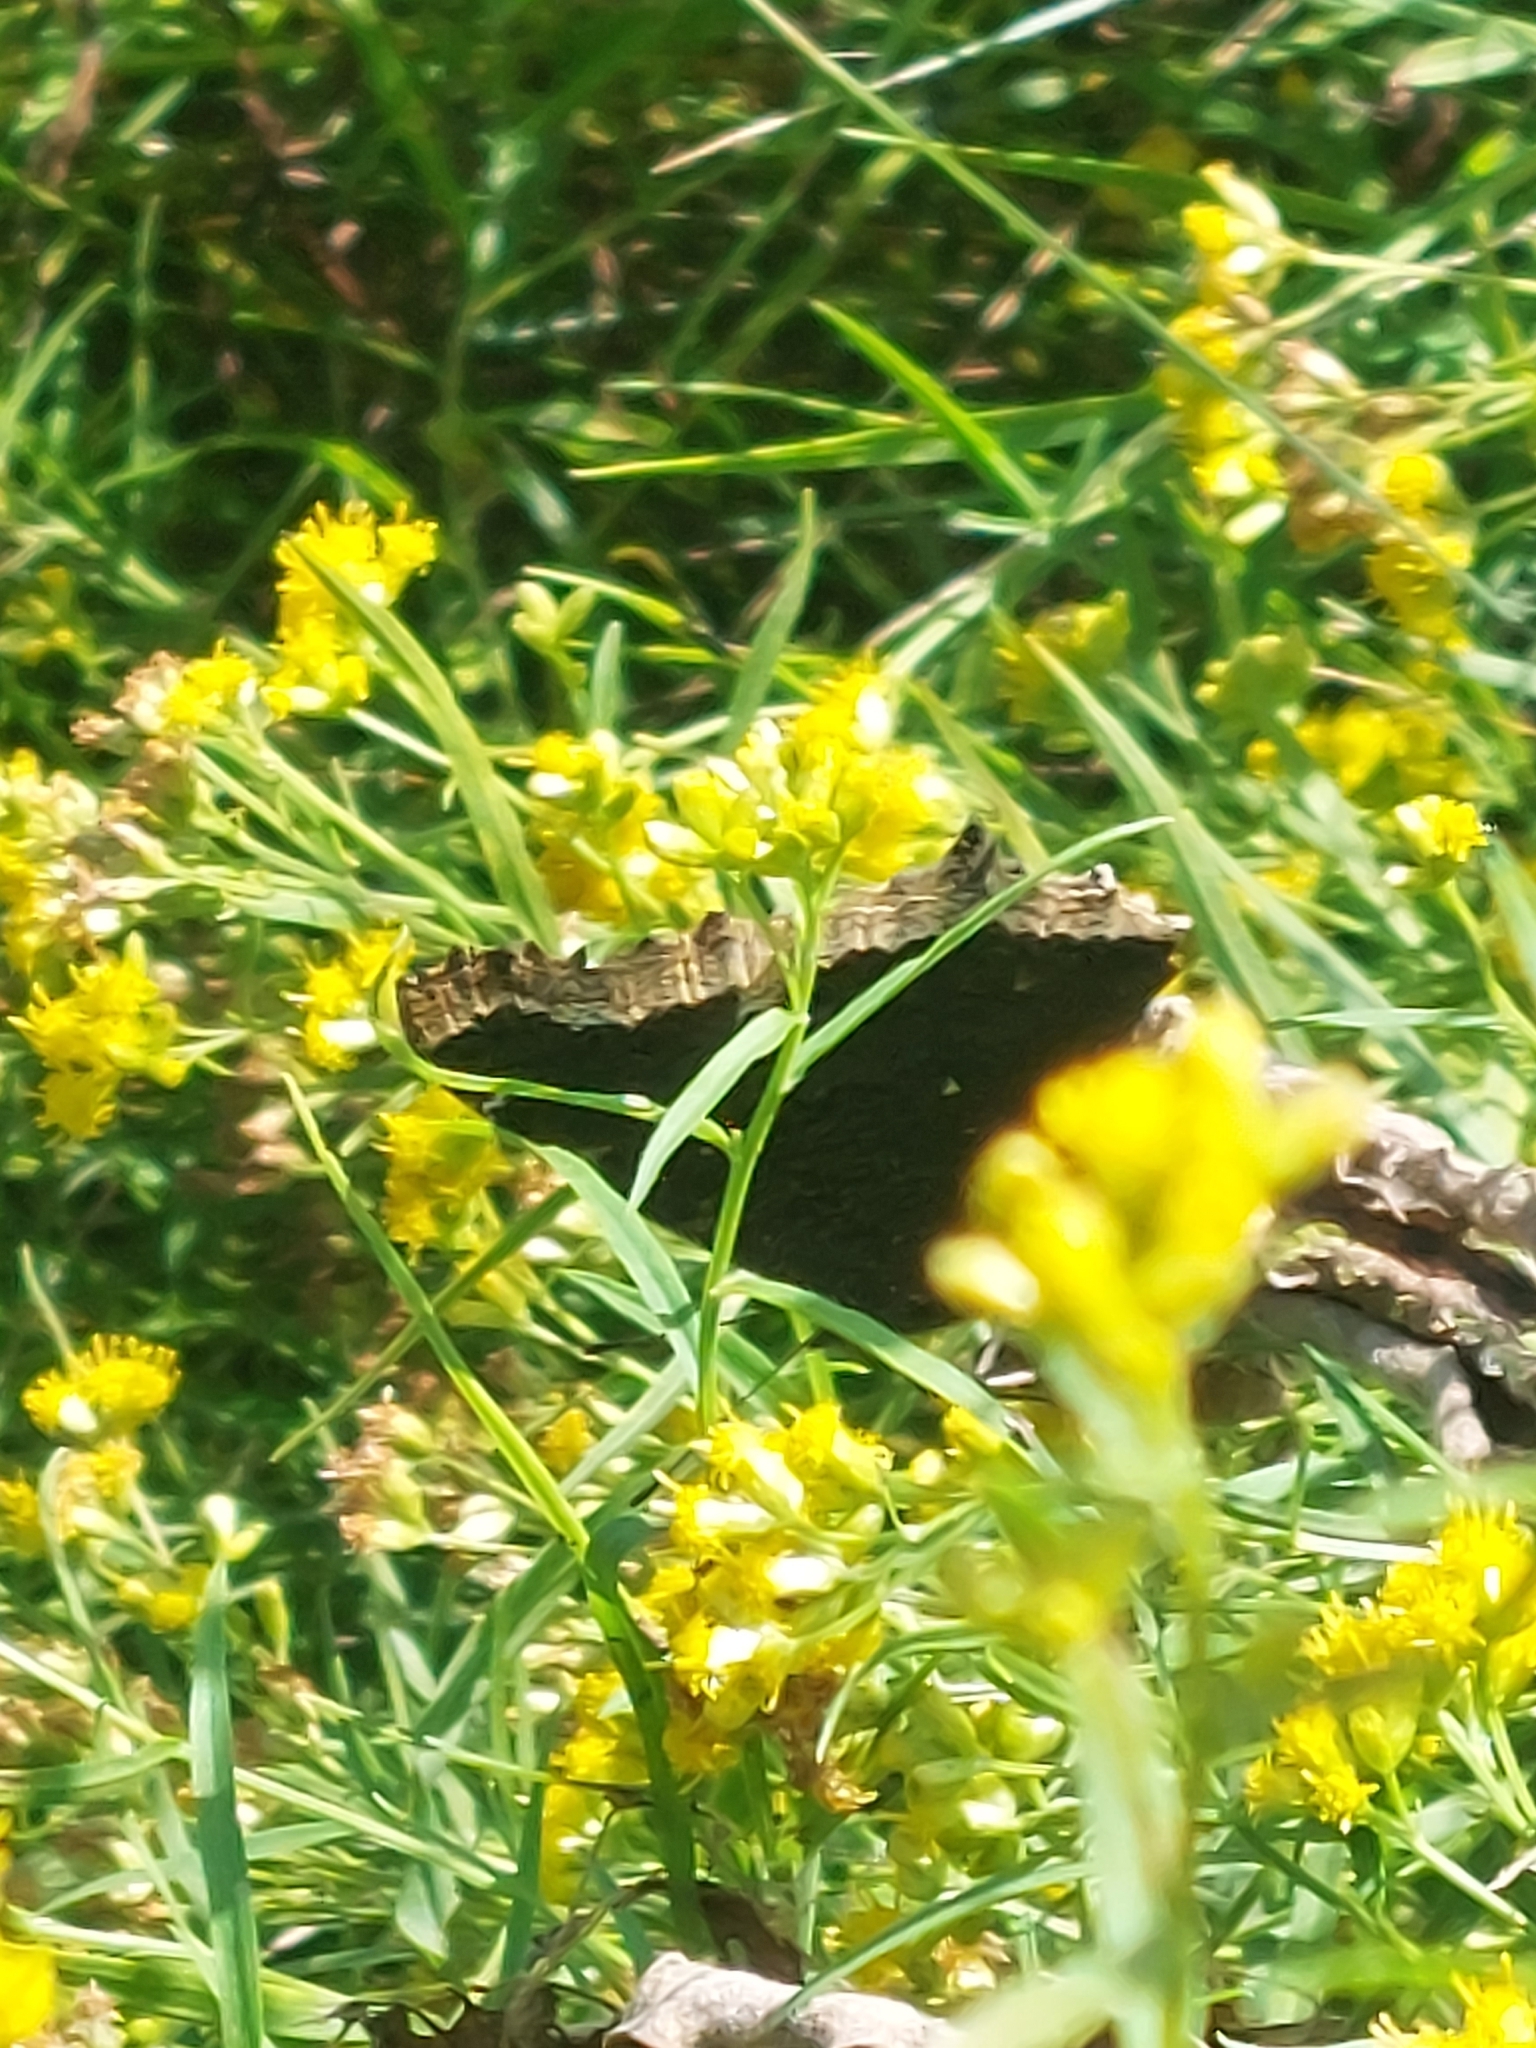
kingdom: Animalia
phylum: Arthropoda
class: Insecta
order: Lepidoptera
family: Nymphalidae
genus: Nymphalis
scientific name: Nymphalis antiopa
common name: Camberwell beauty
